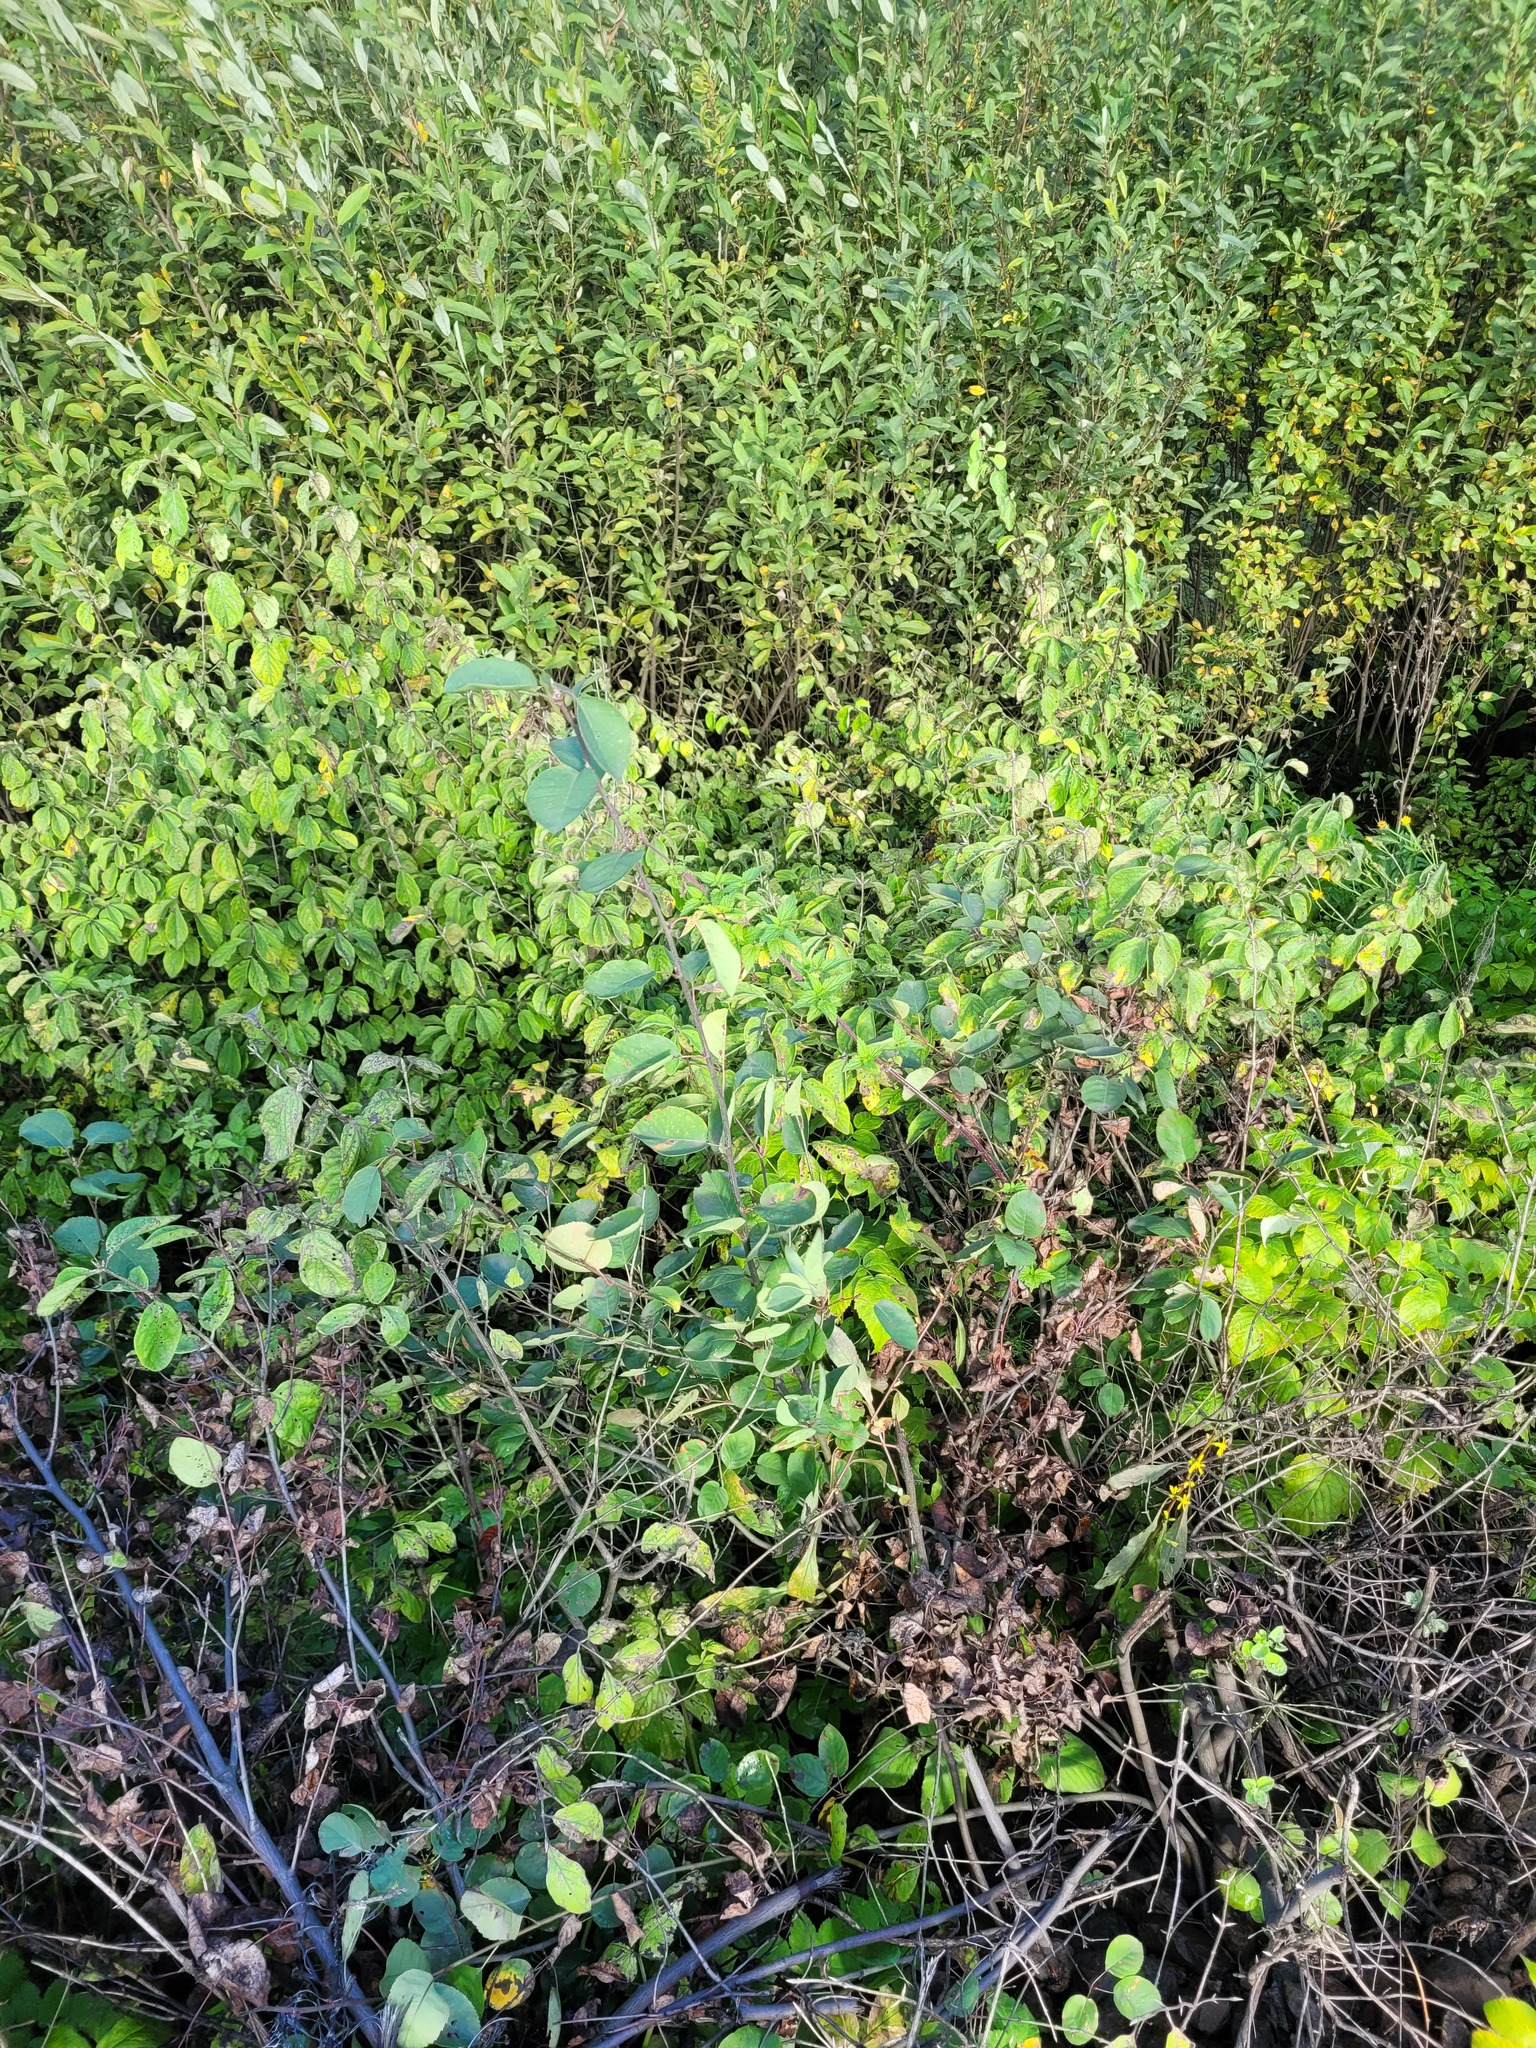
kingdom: Plantae
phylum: Tracheophyta
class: Magnoliopsida
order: Rosales
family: Rosaceae
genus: Amelanchier
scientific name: Amelanchier
